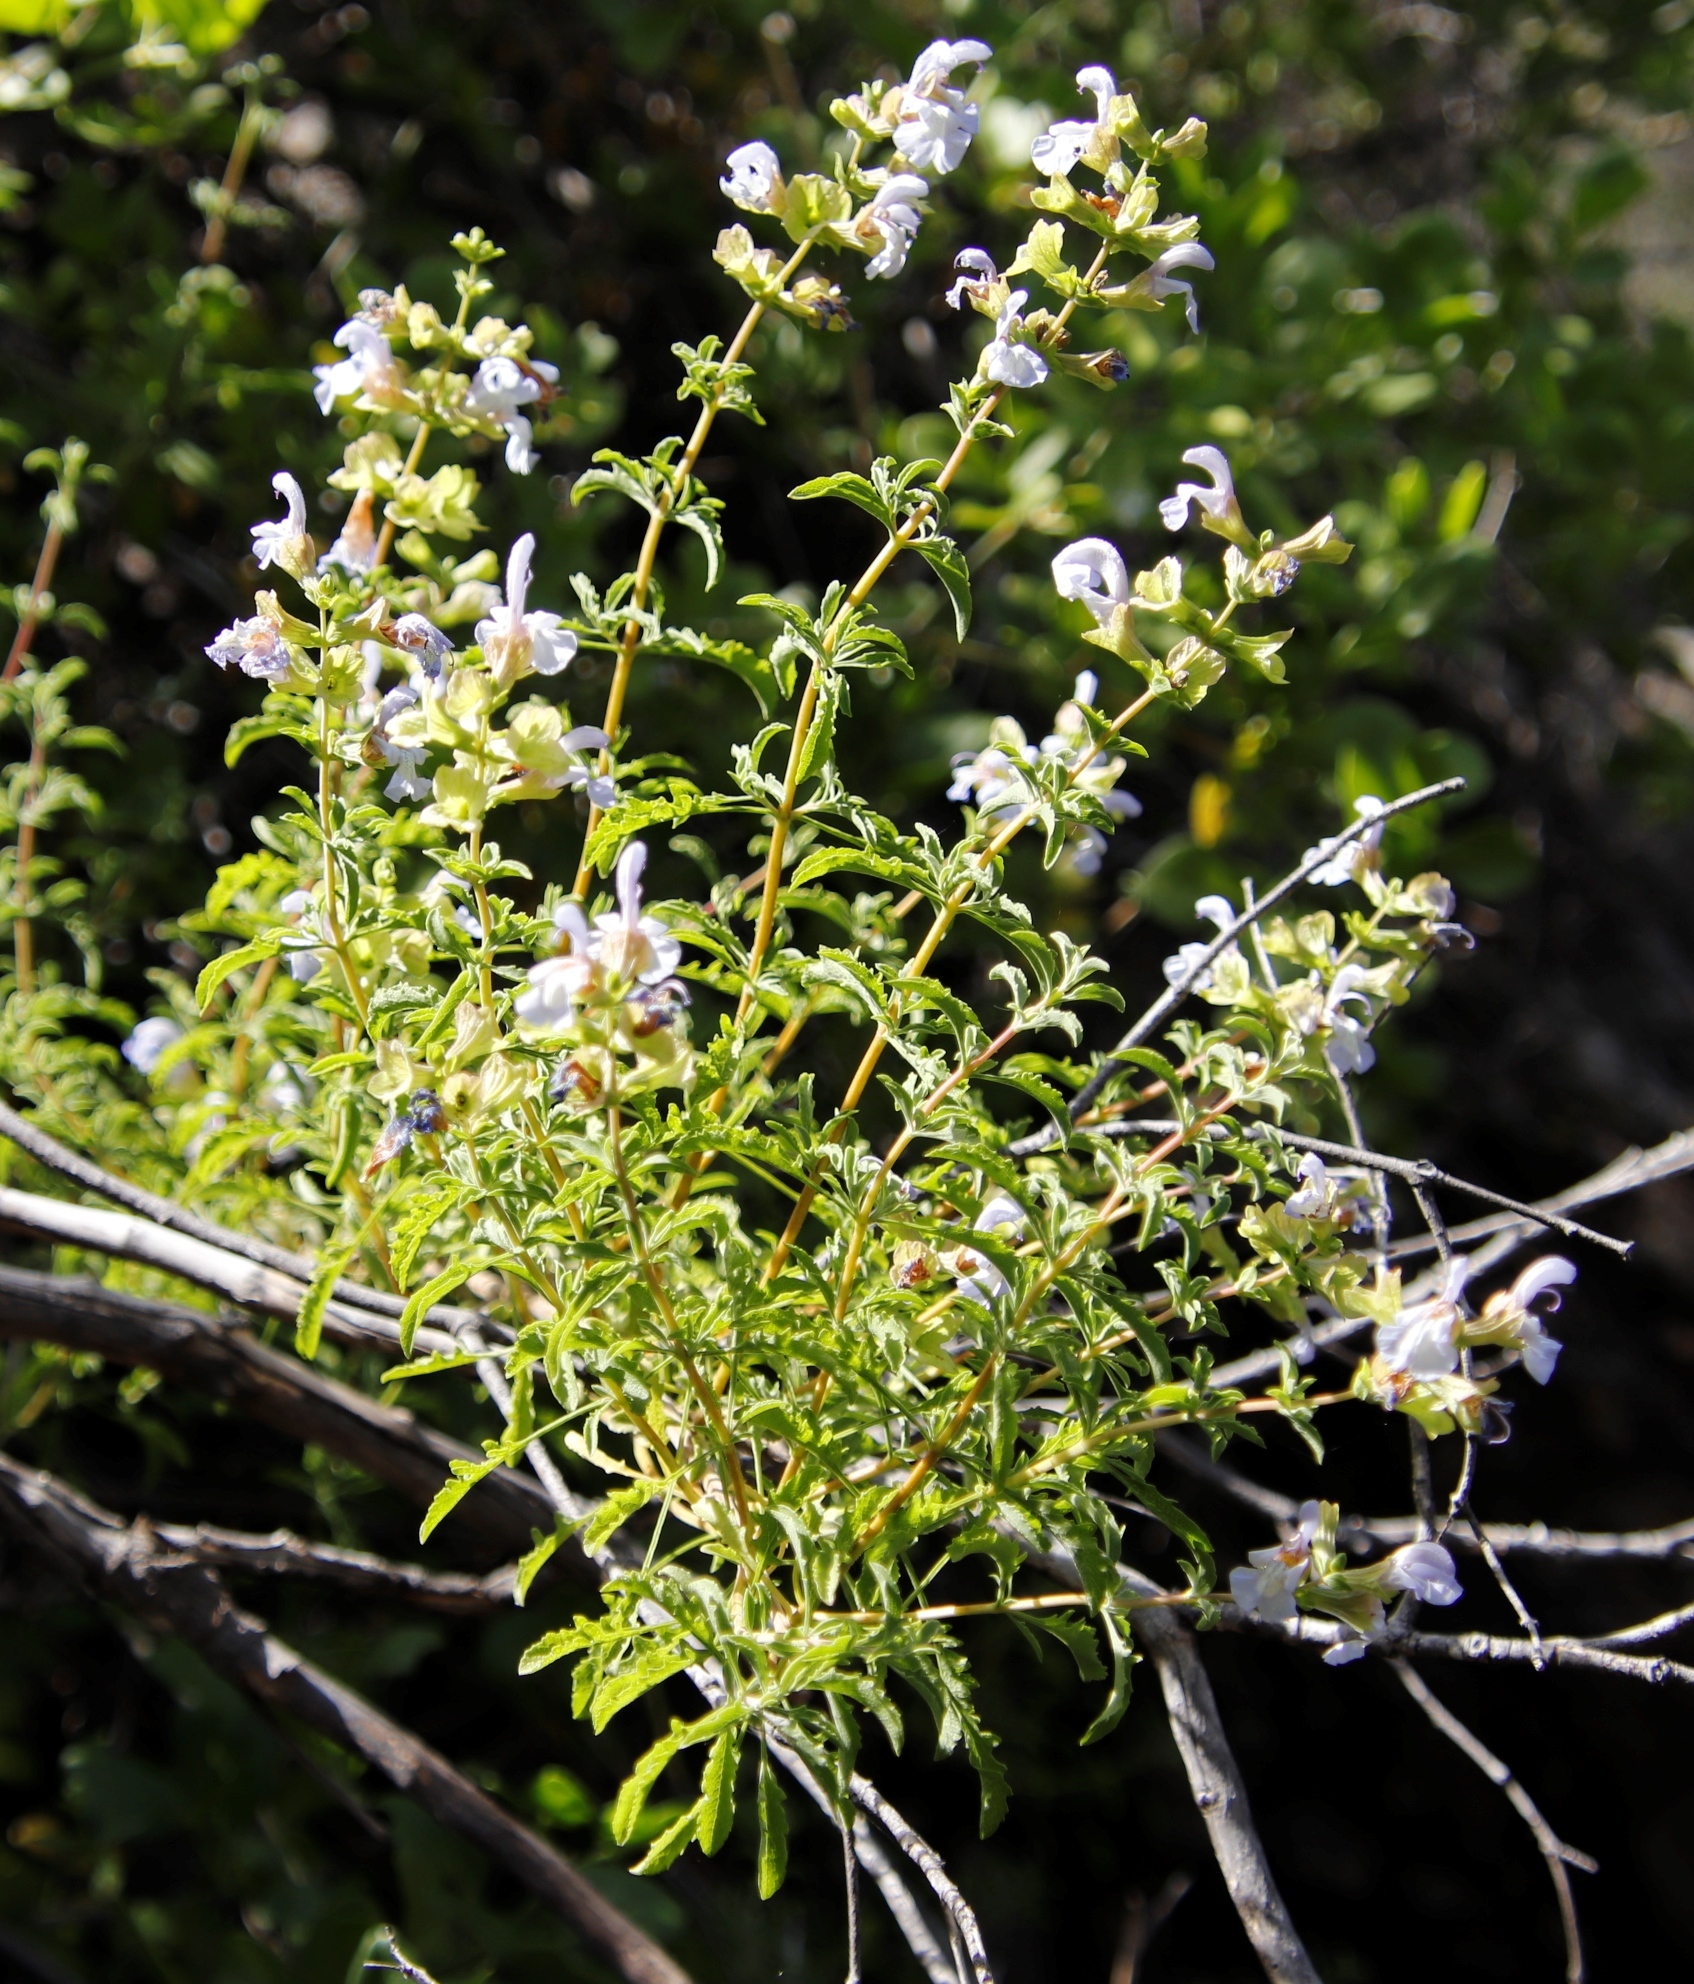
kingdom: Plantae
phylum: Tracheophyta
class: Magnoliopsida
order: Lamiales
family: Lamiaceae
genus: Salvia
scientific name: Salvia dentata
